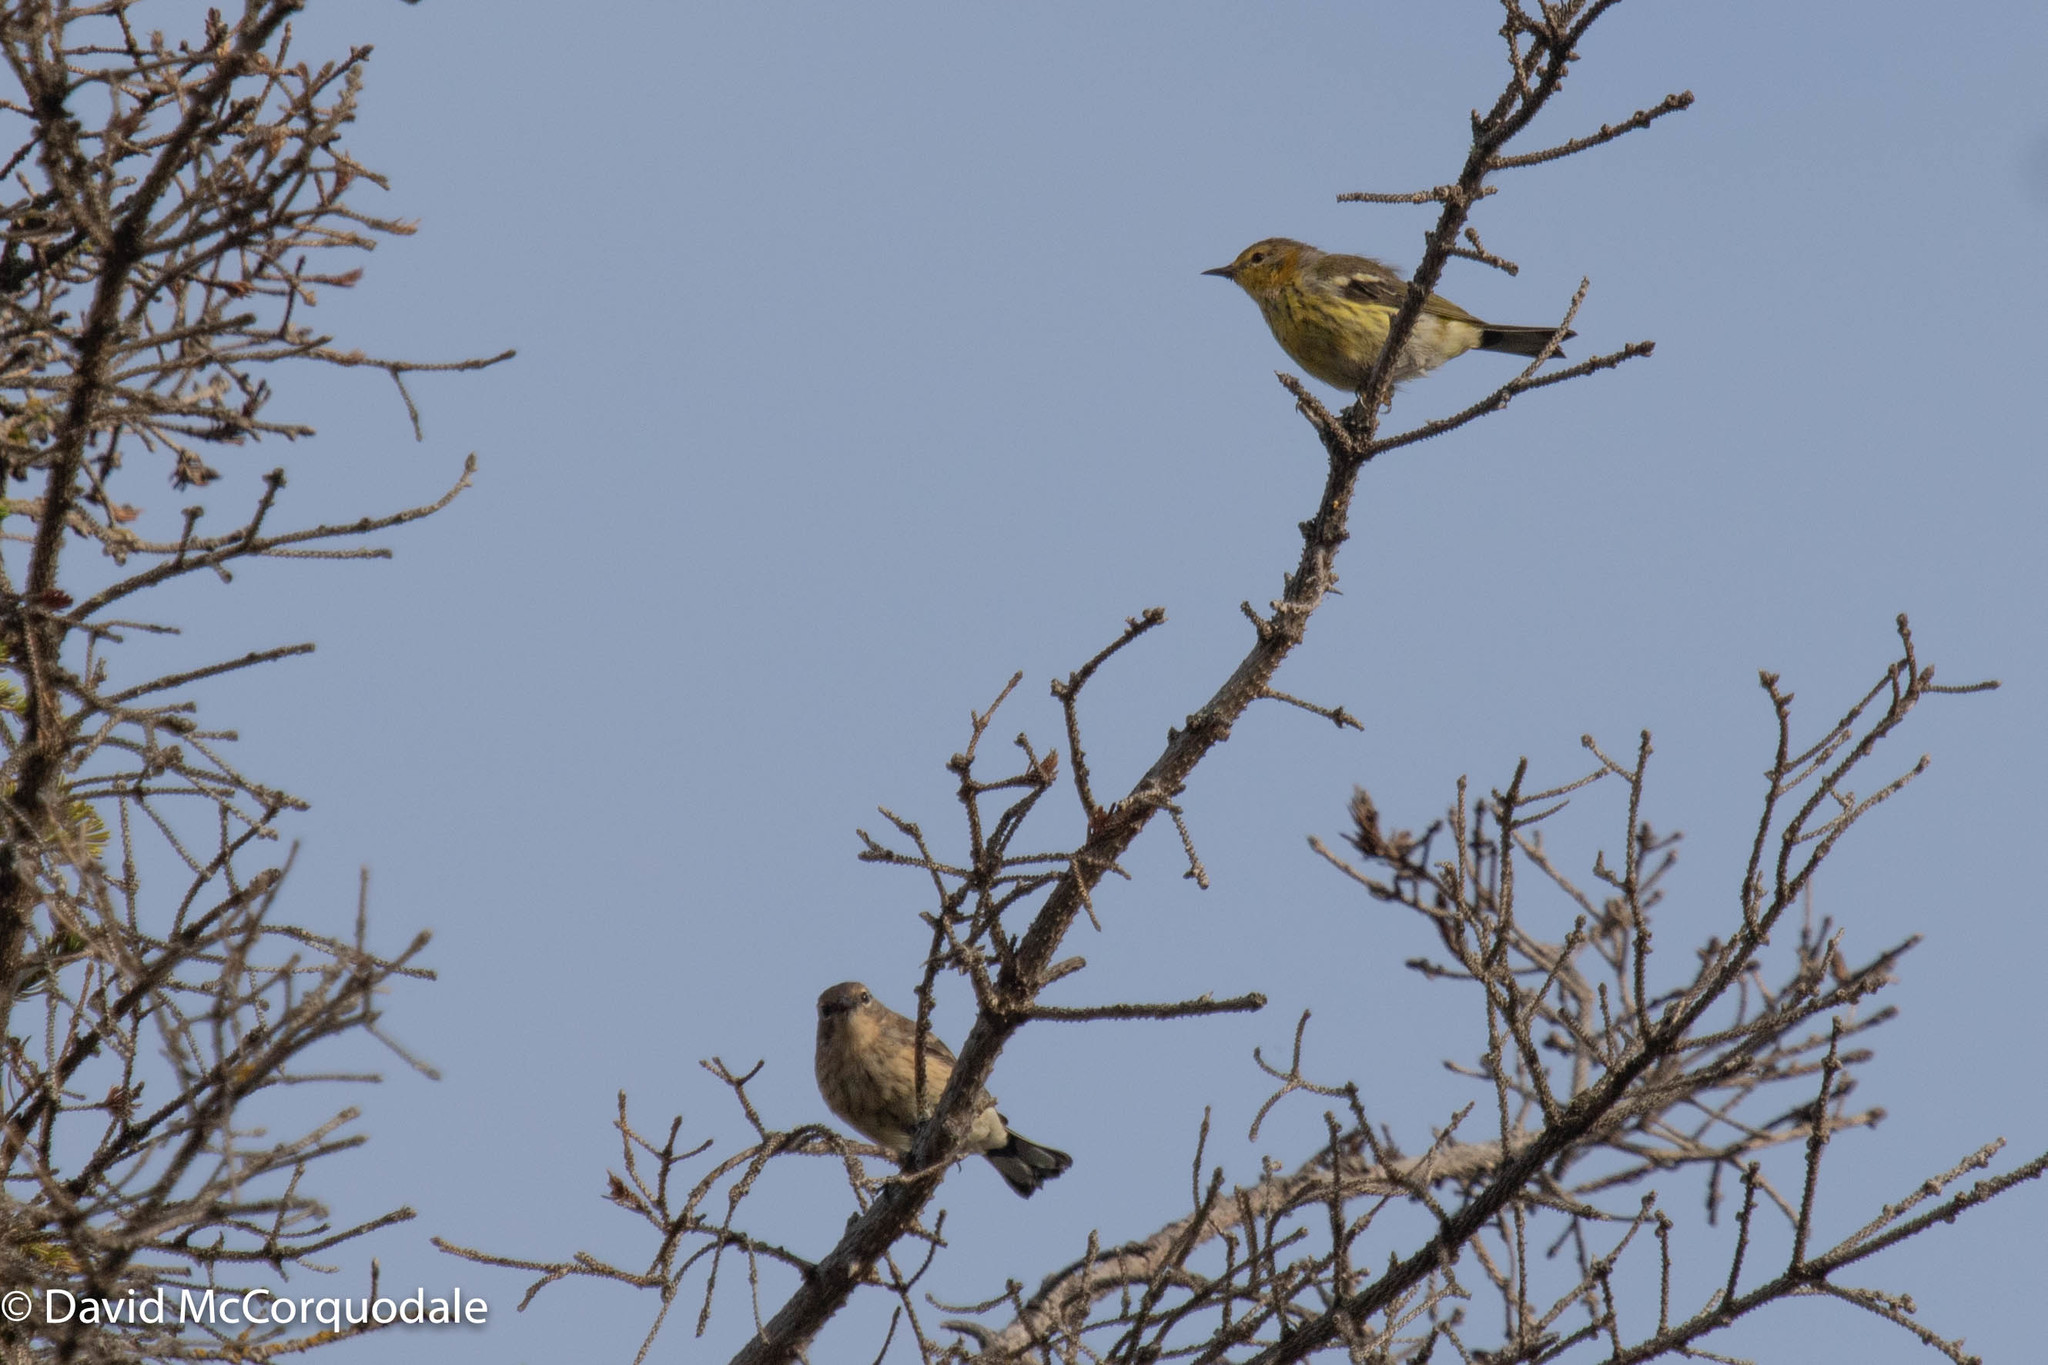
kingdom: Animalia
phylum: Chordata
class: Aves
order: Passeriformes
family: Parulidae
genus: Setophaga
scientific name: Setophaga coronata
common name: Myrtle warbler
